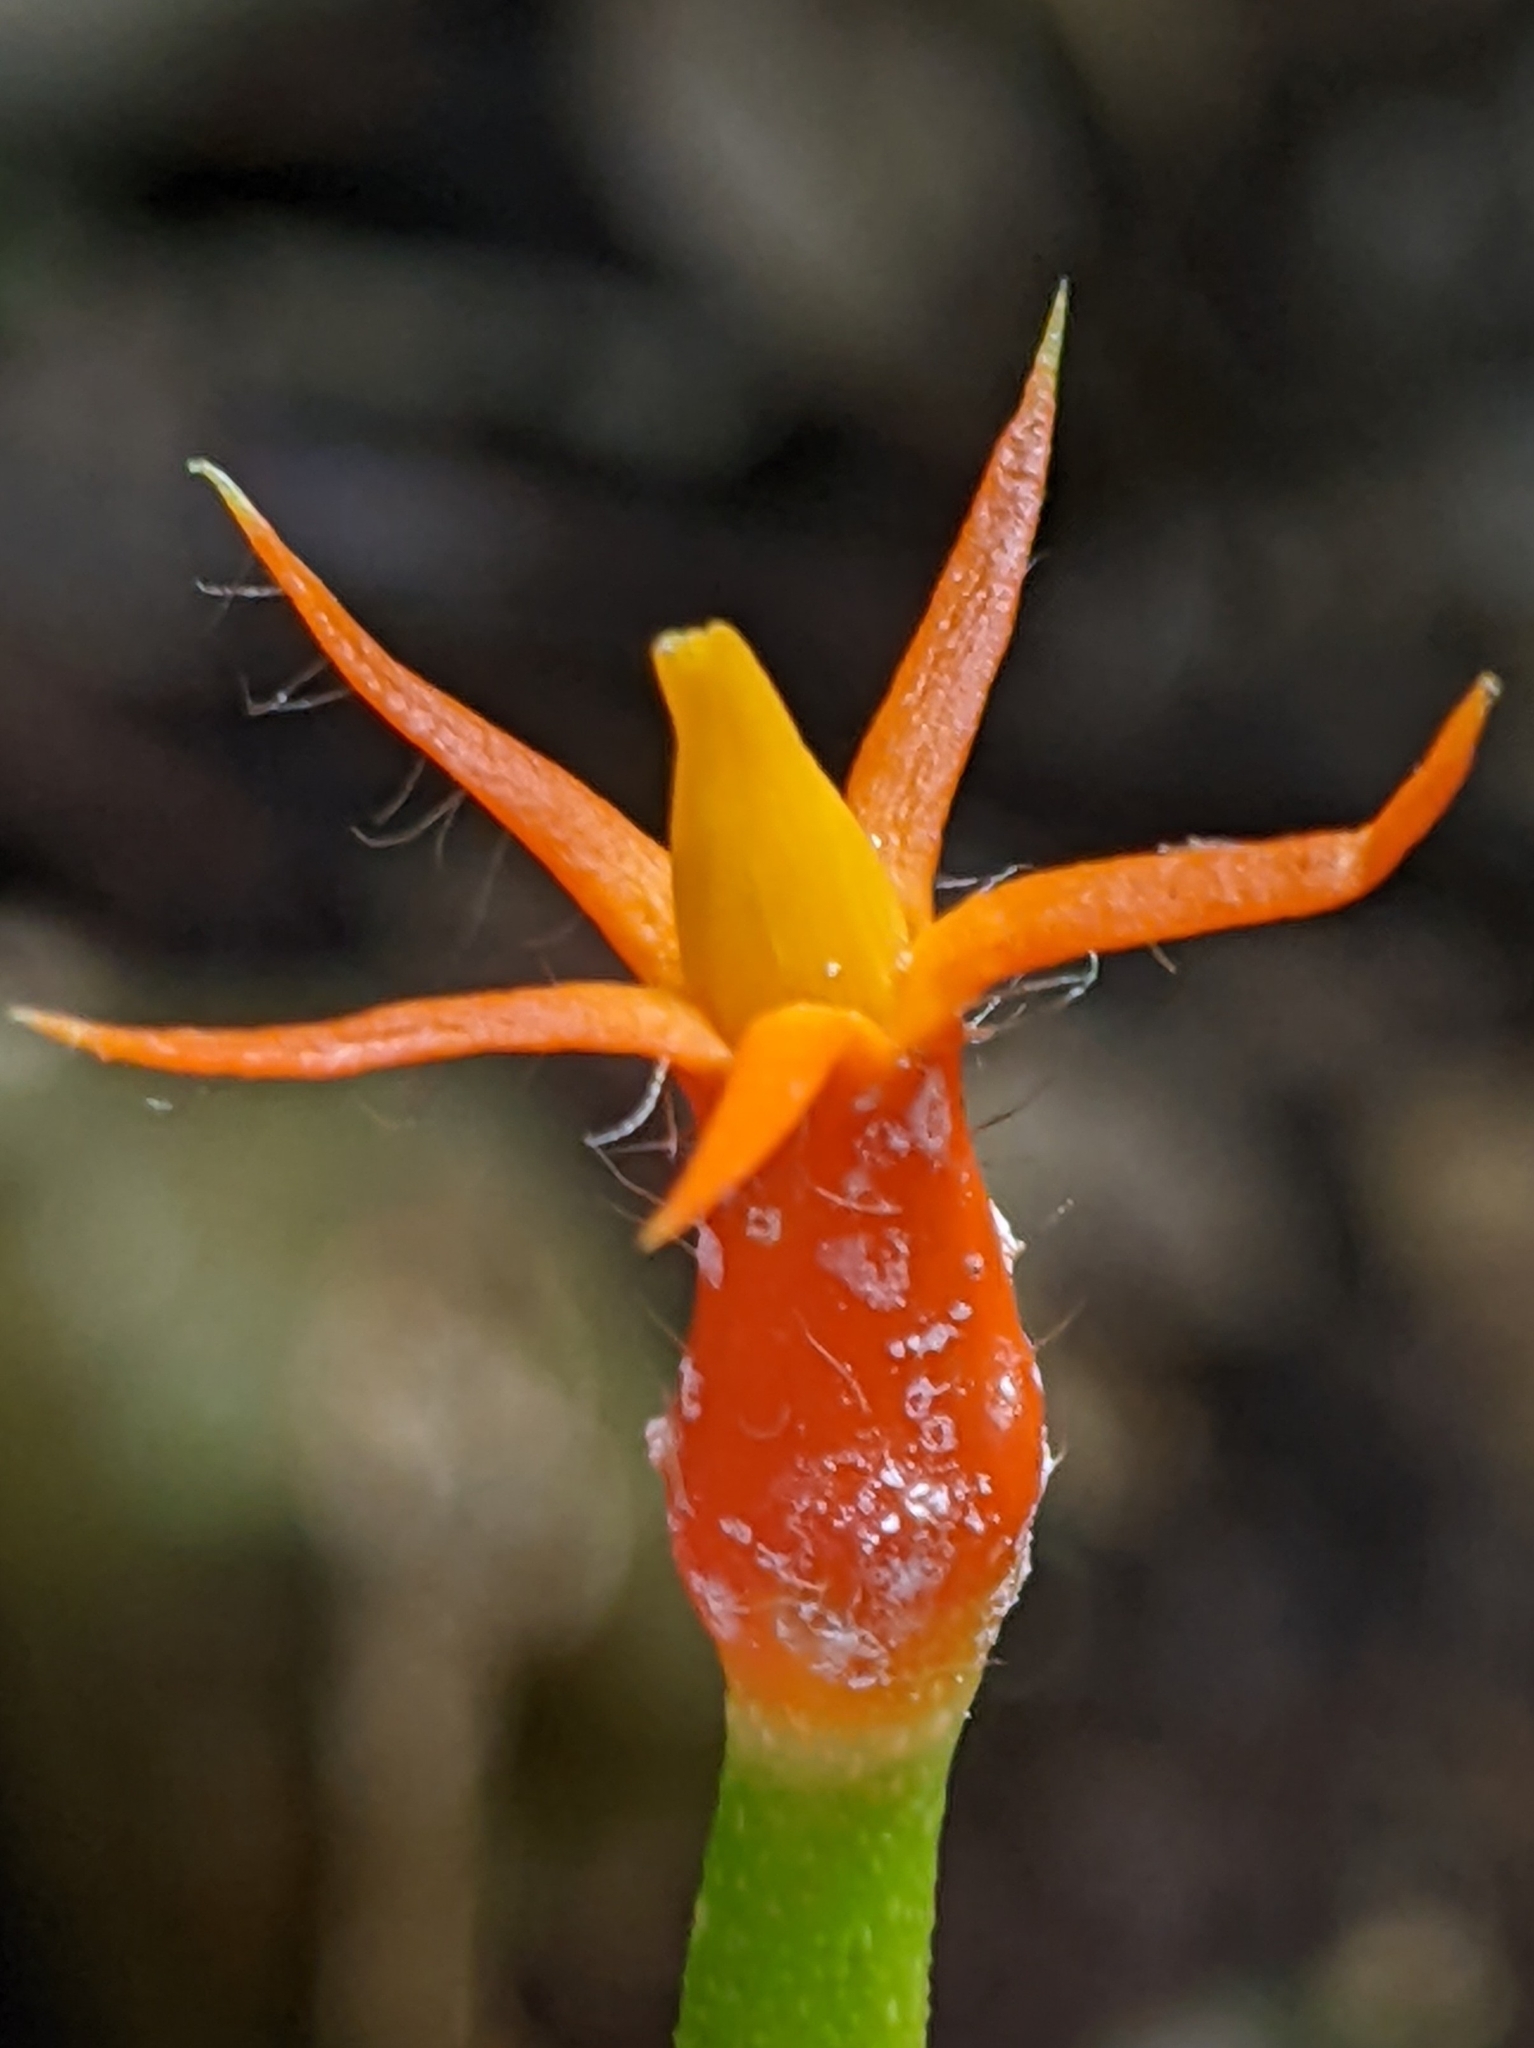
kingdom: Plantae
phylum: Tracheophyta
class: Magnoliopsida
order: Cucurbitales
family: Cucurbitaceae
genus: Gurania
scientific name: Gurania makoyana
